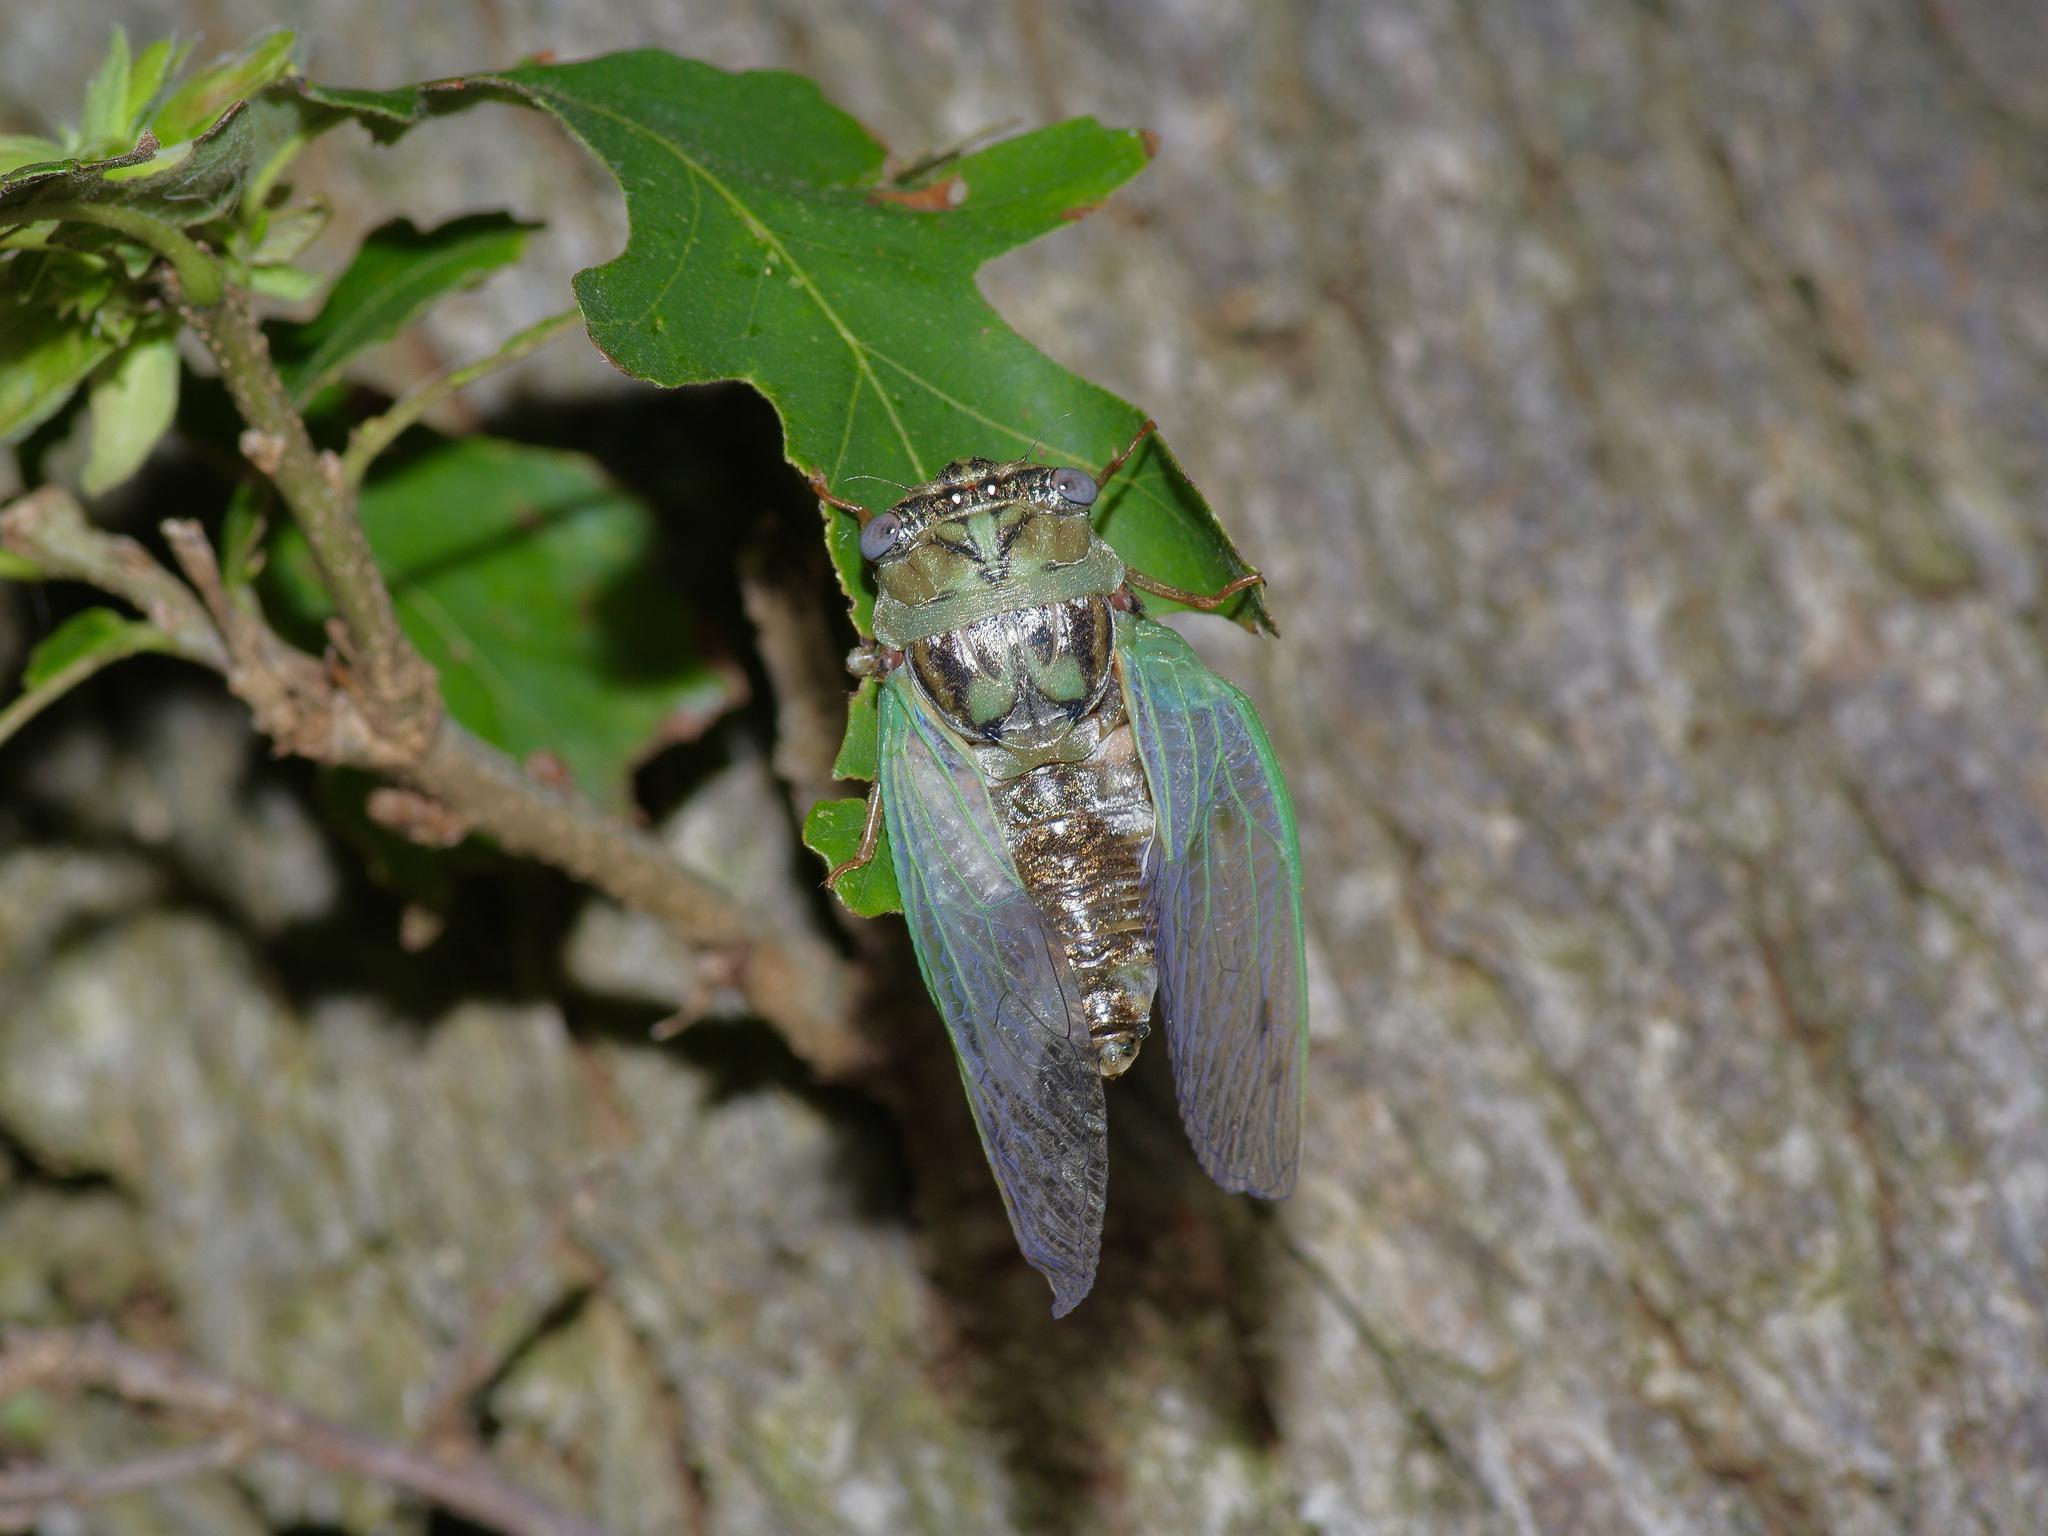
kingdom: Animalia
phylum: Arthropoda
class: Insecta
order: Hemiptera
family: Cicadidae
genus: Megatibicen
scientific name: Megatibicen resh
